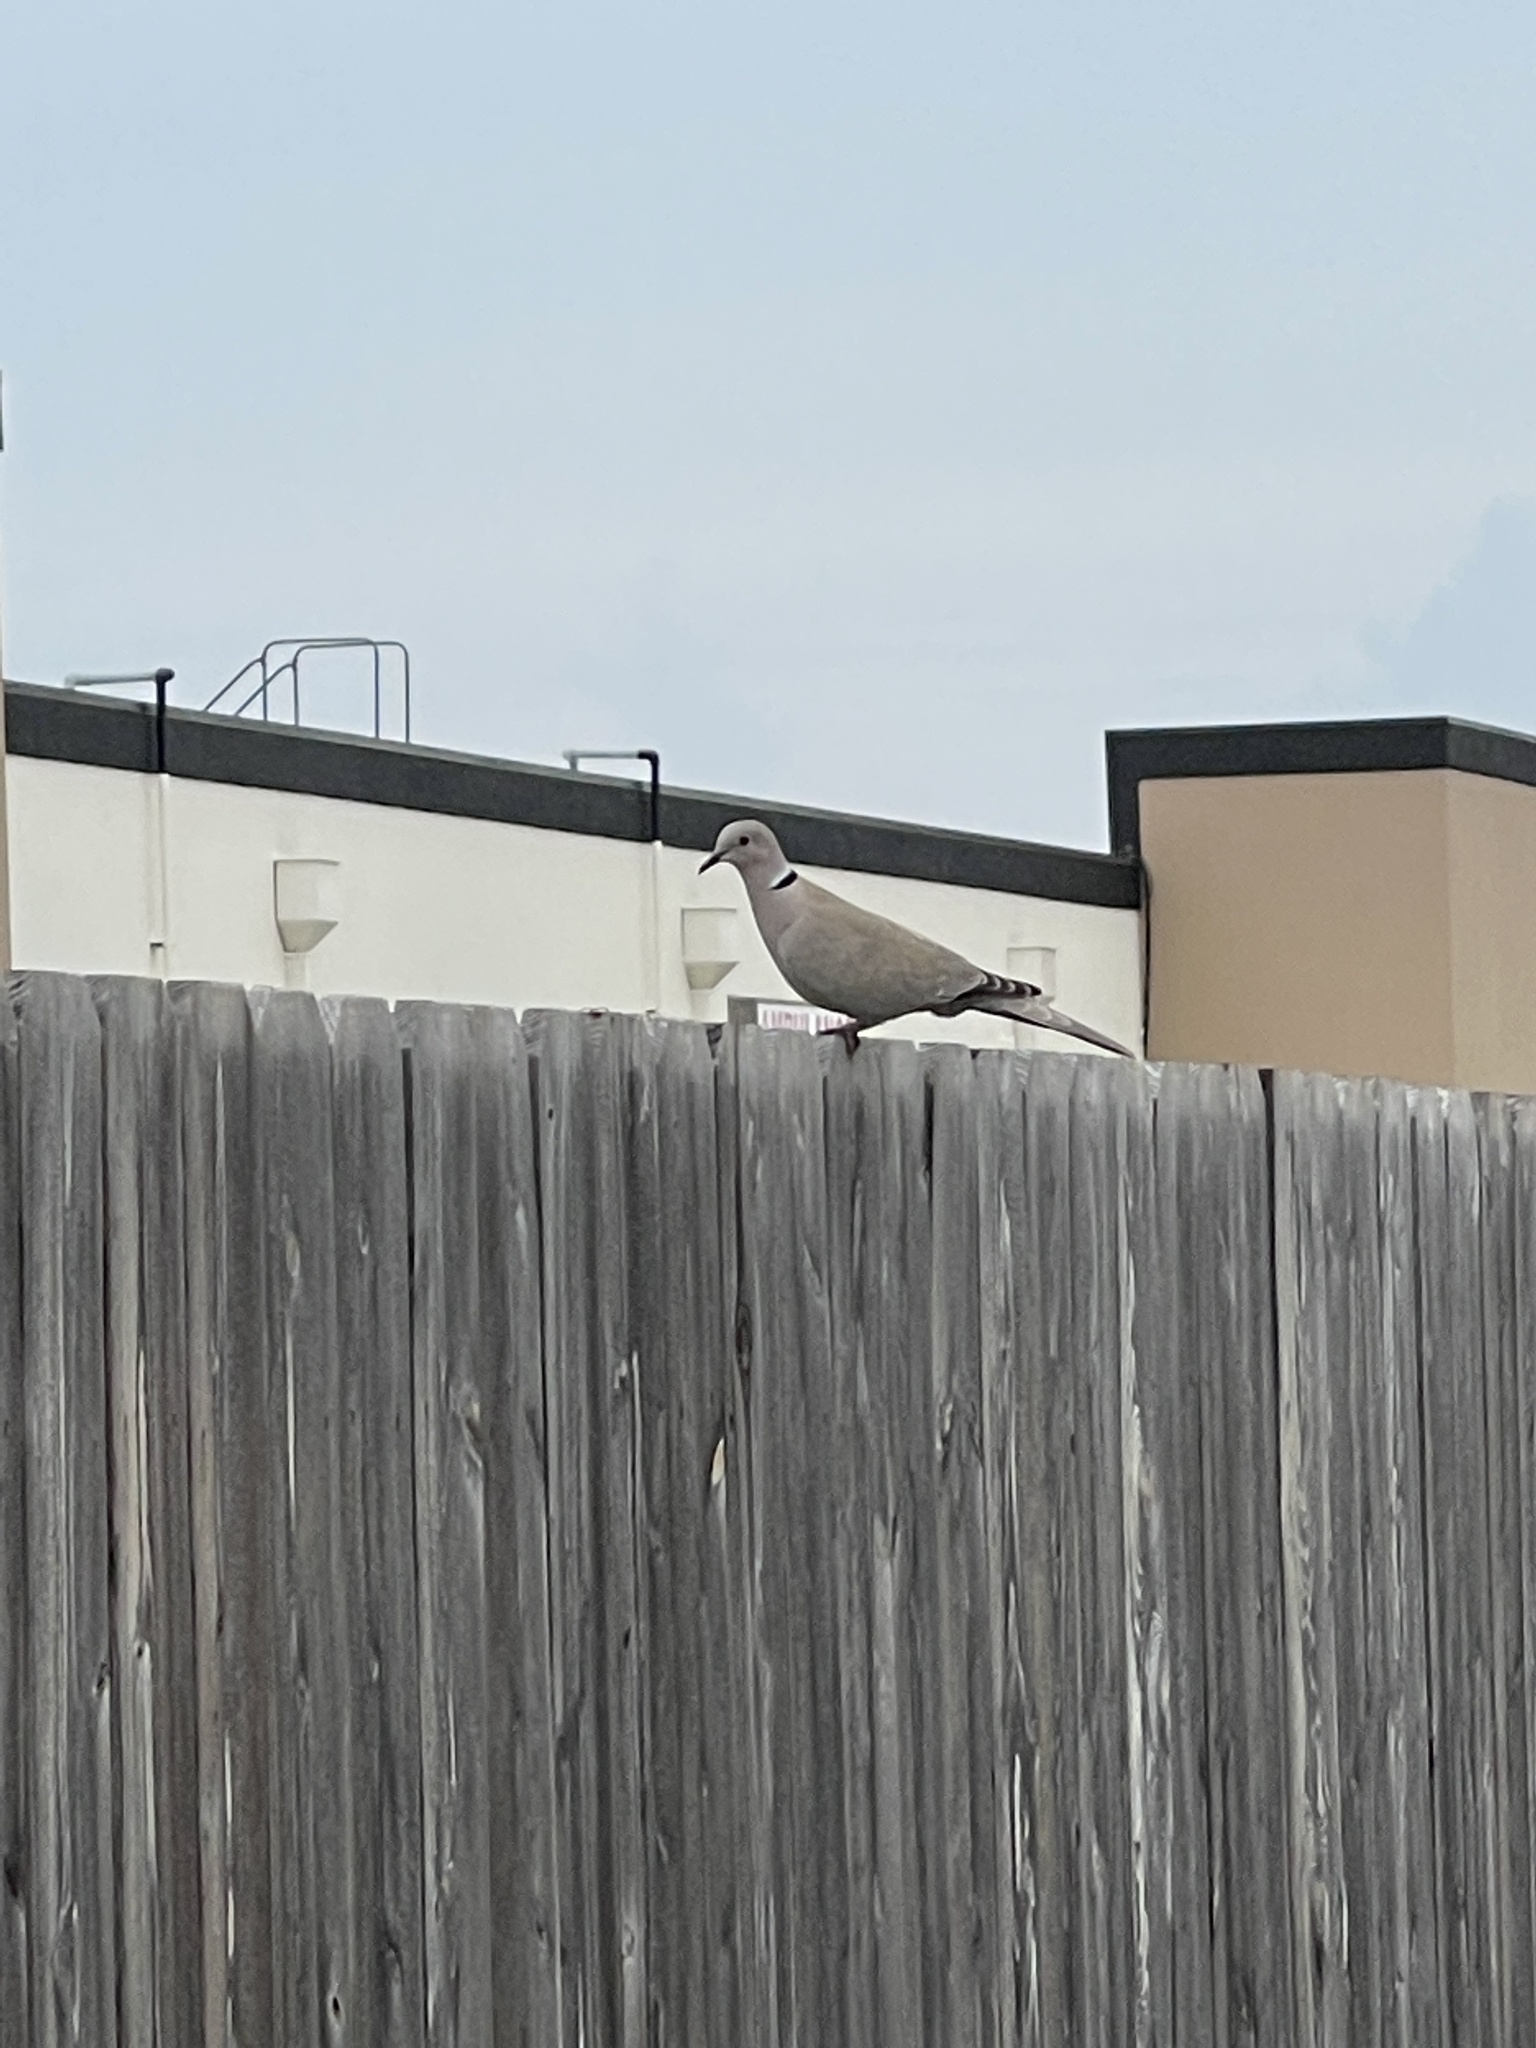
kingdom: Animalia
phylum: Chordata
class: Aves
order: Columbiformes
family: Columbidae
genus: Streptopelia
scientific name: Streptopelia decaocto
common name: Eurasian collared dove
